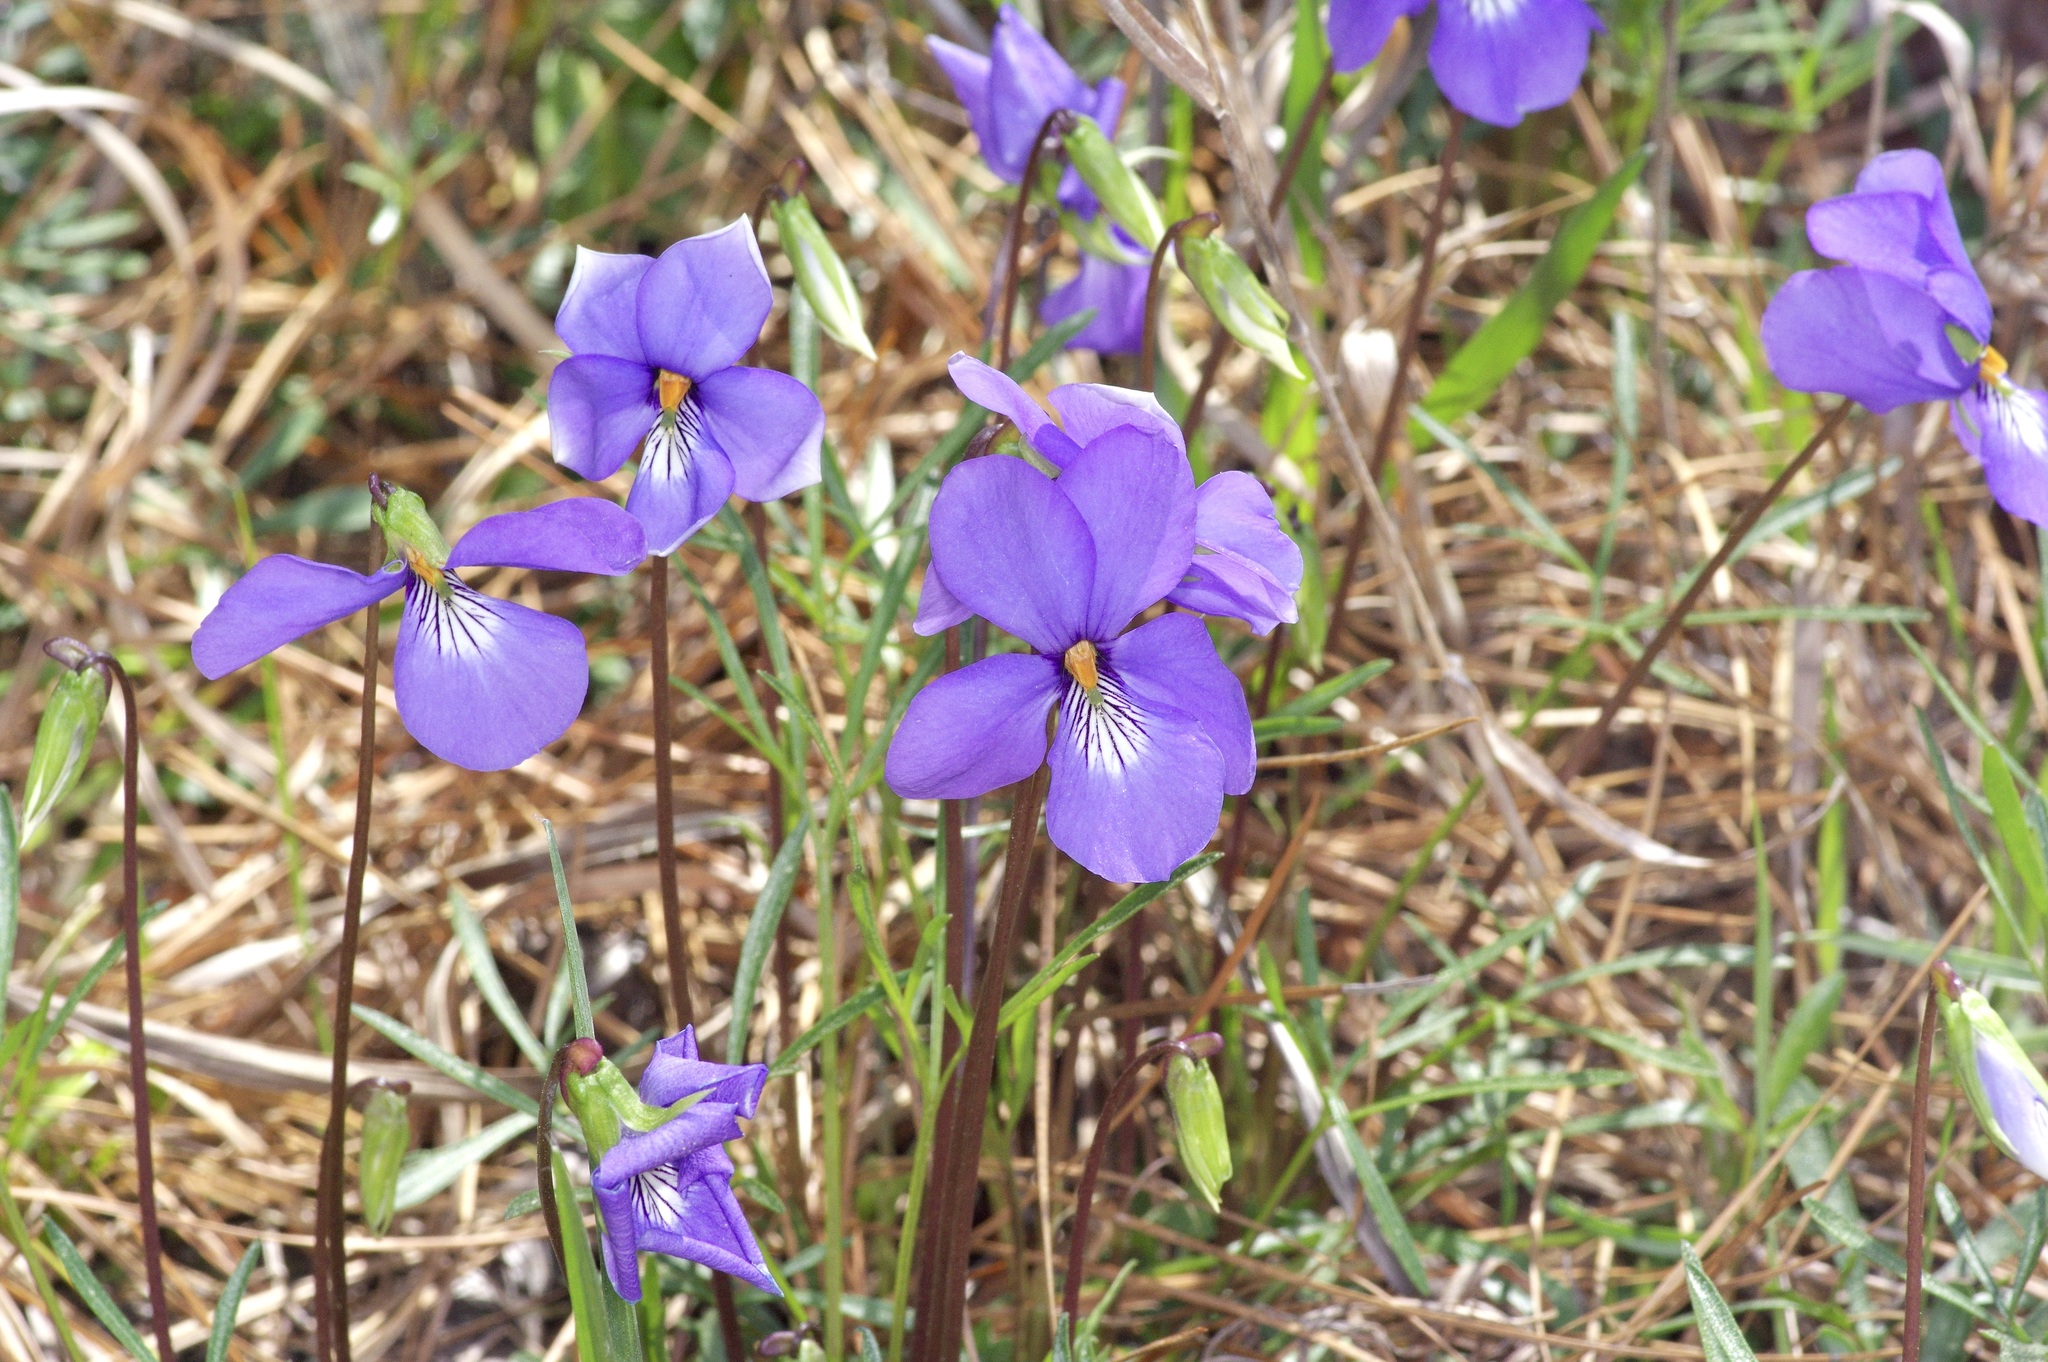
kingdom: Plantae
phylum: Tracheophyta
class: Magnoliopsida
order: Malpighiales
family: Violaceae
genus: Viola
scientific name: Viola pedata
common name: Pansy violet
